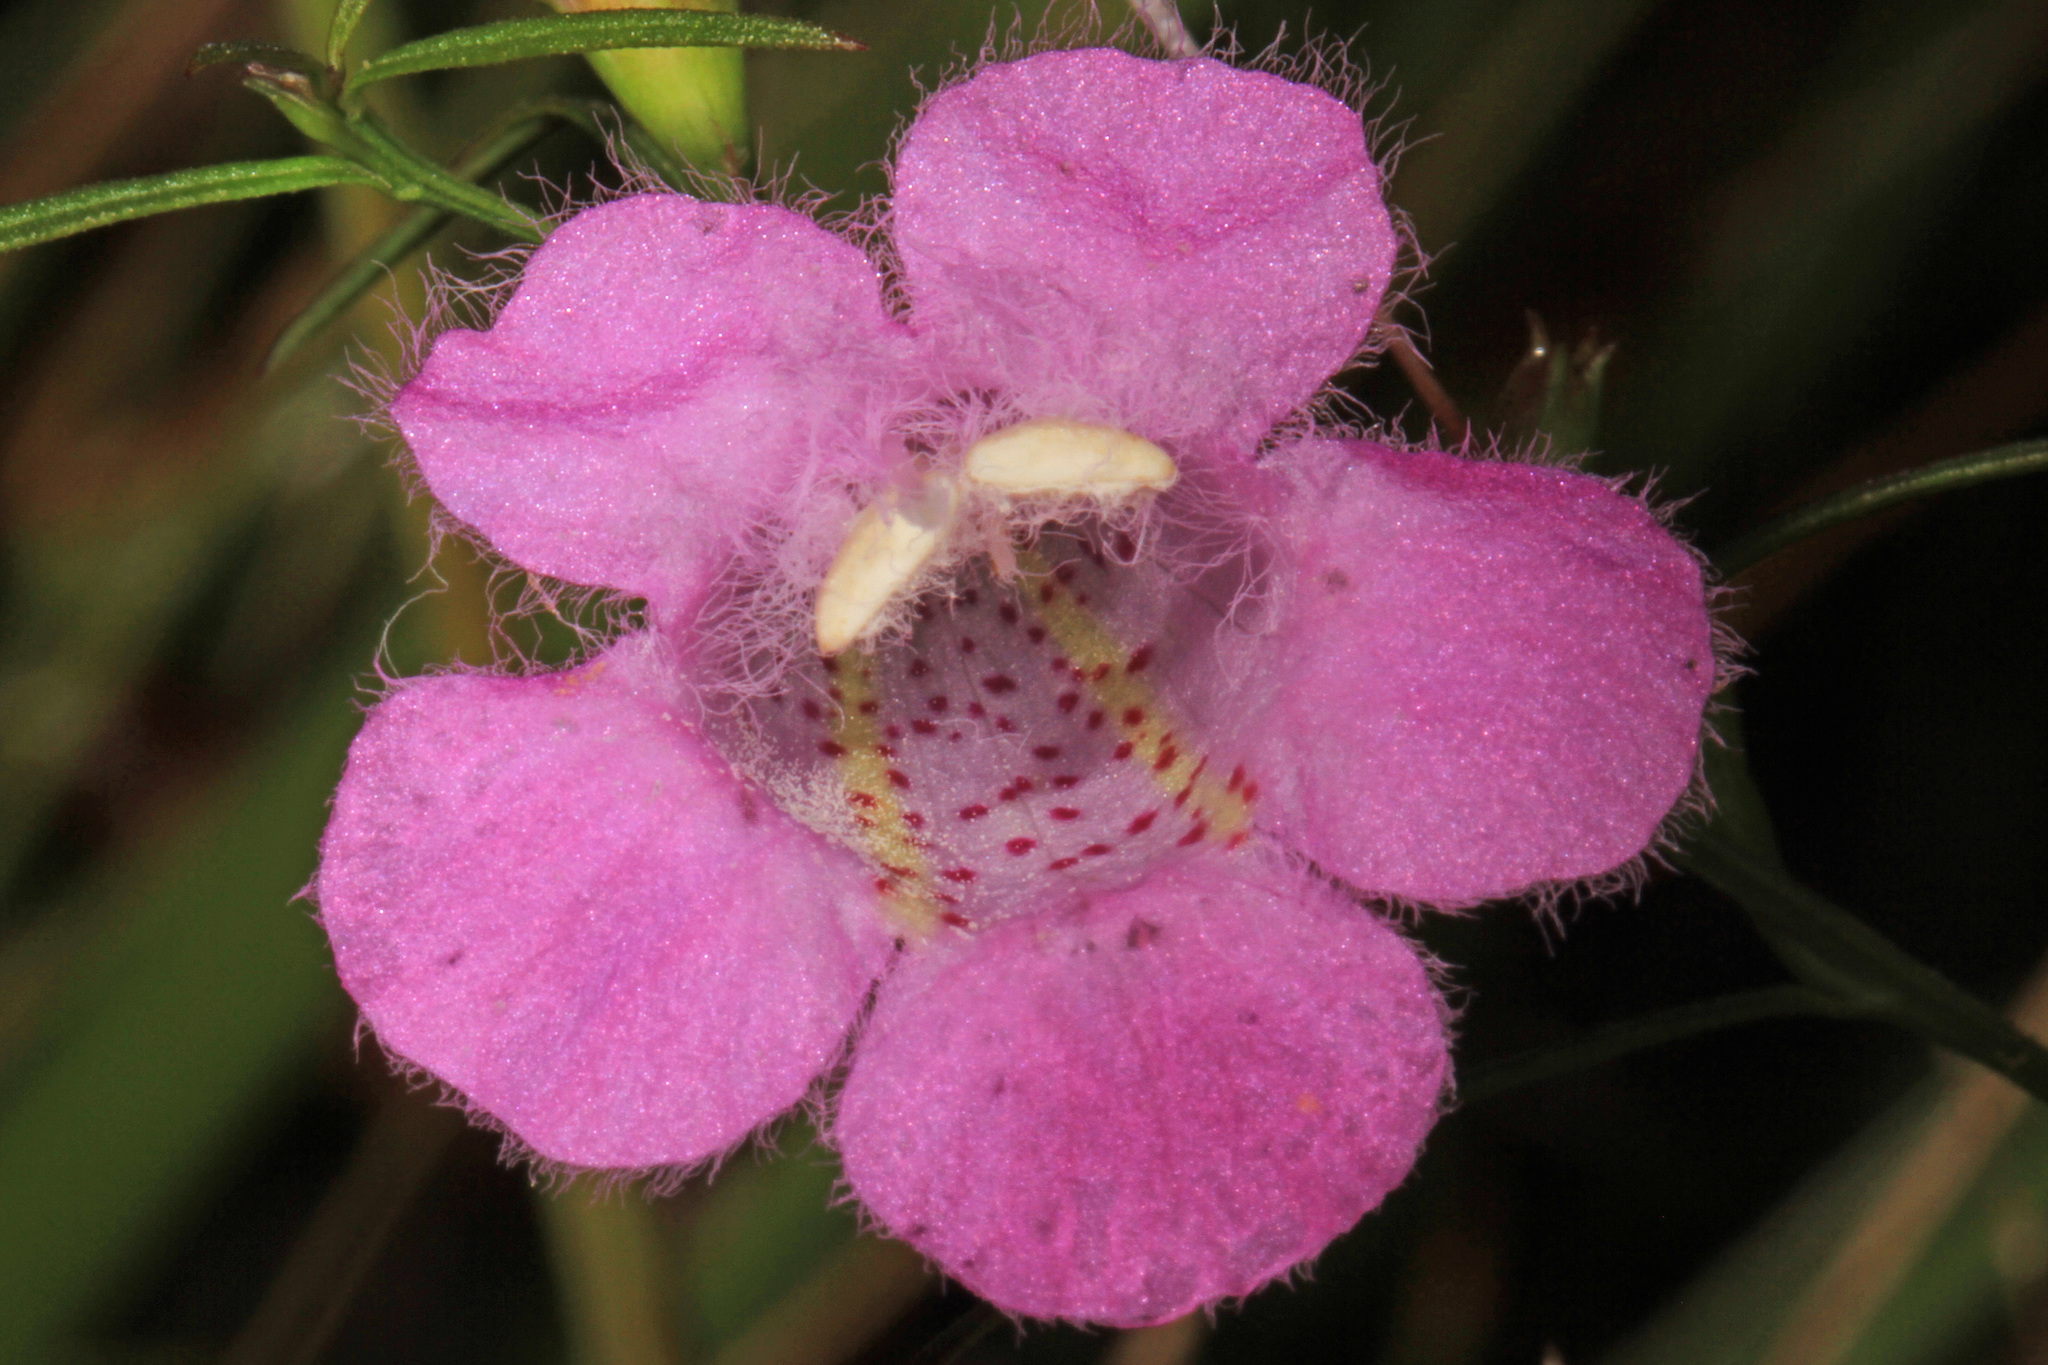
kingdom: Plantae
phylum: Tracheophyta
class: Magnoliopsida
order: Lamiales
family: Orobanchaceae
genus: Agalinis
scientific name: Agalinis purpurea
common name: Purple false foxglove
